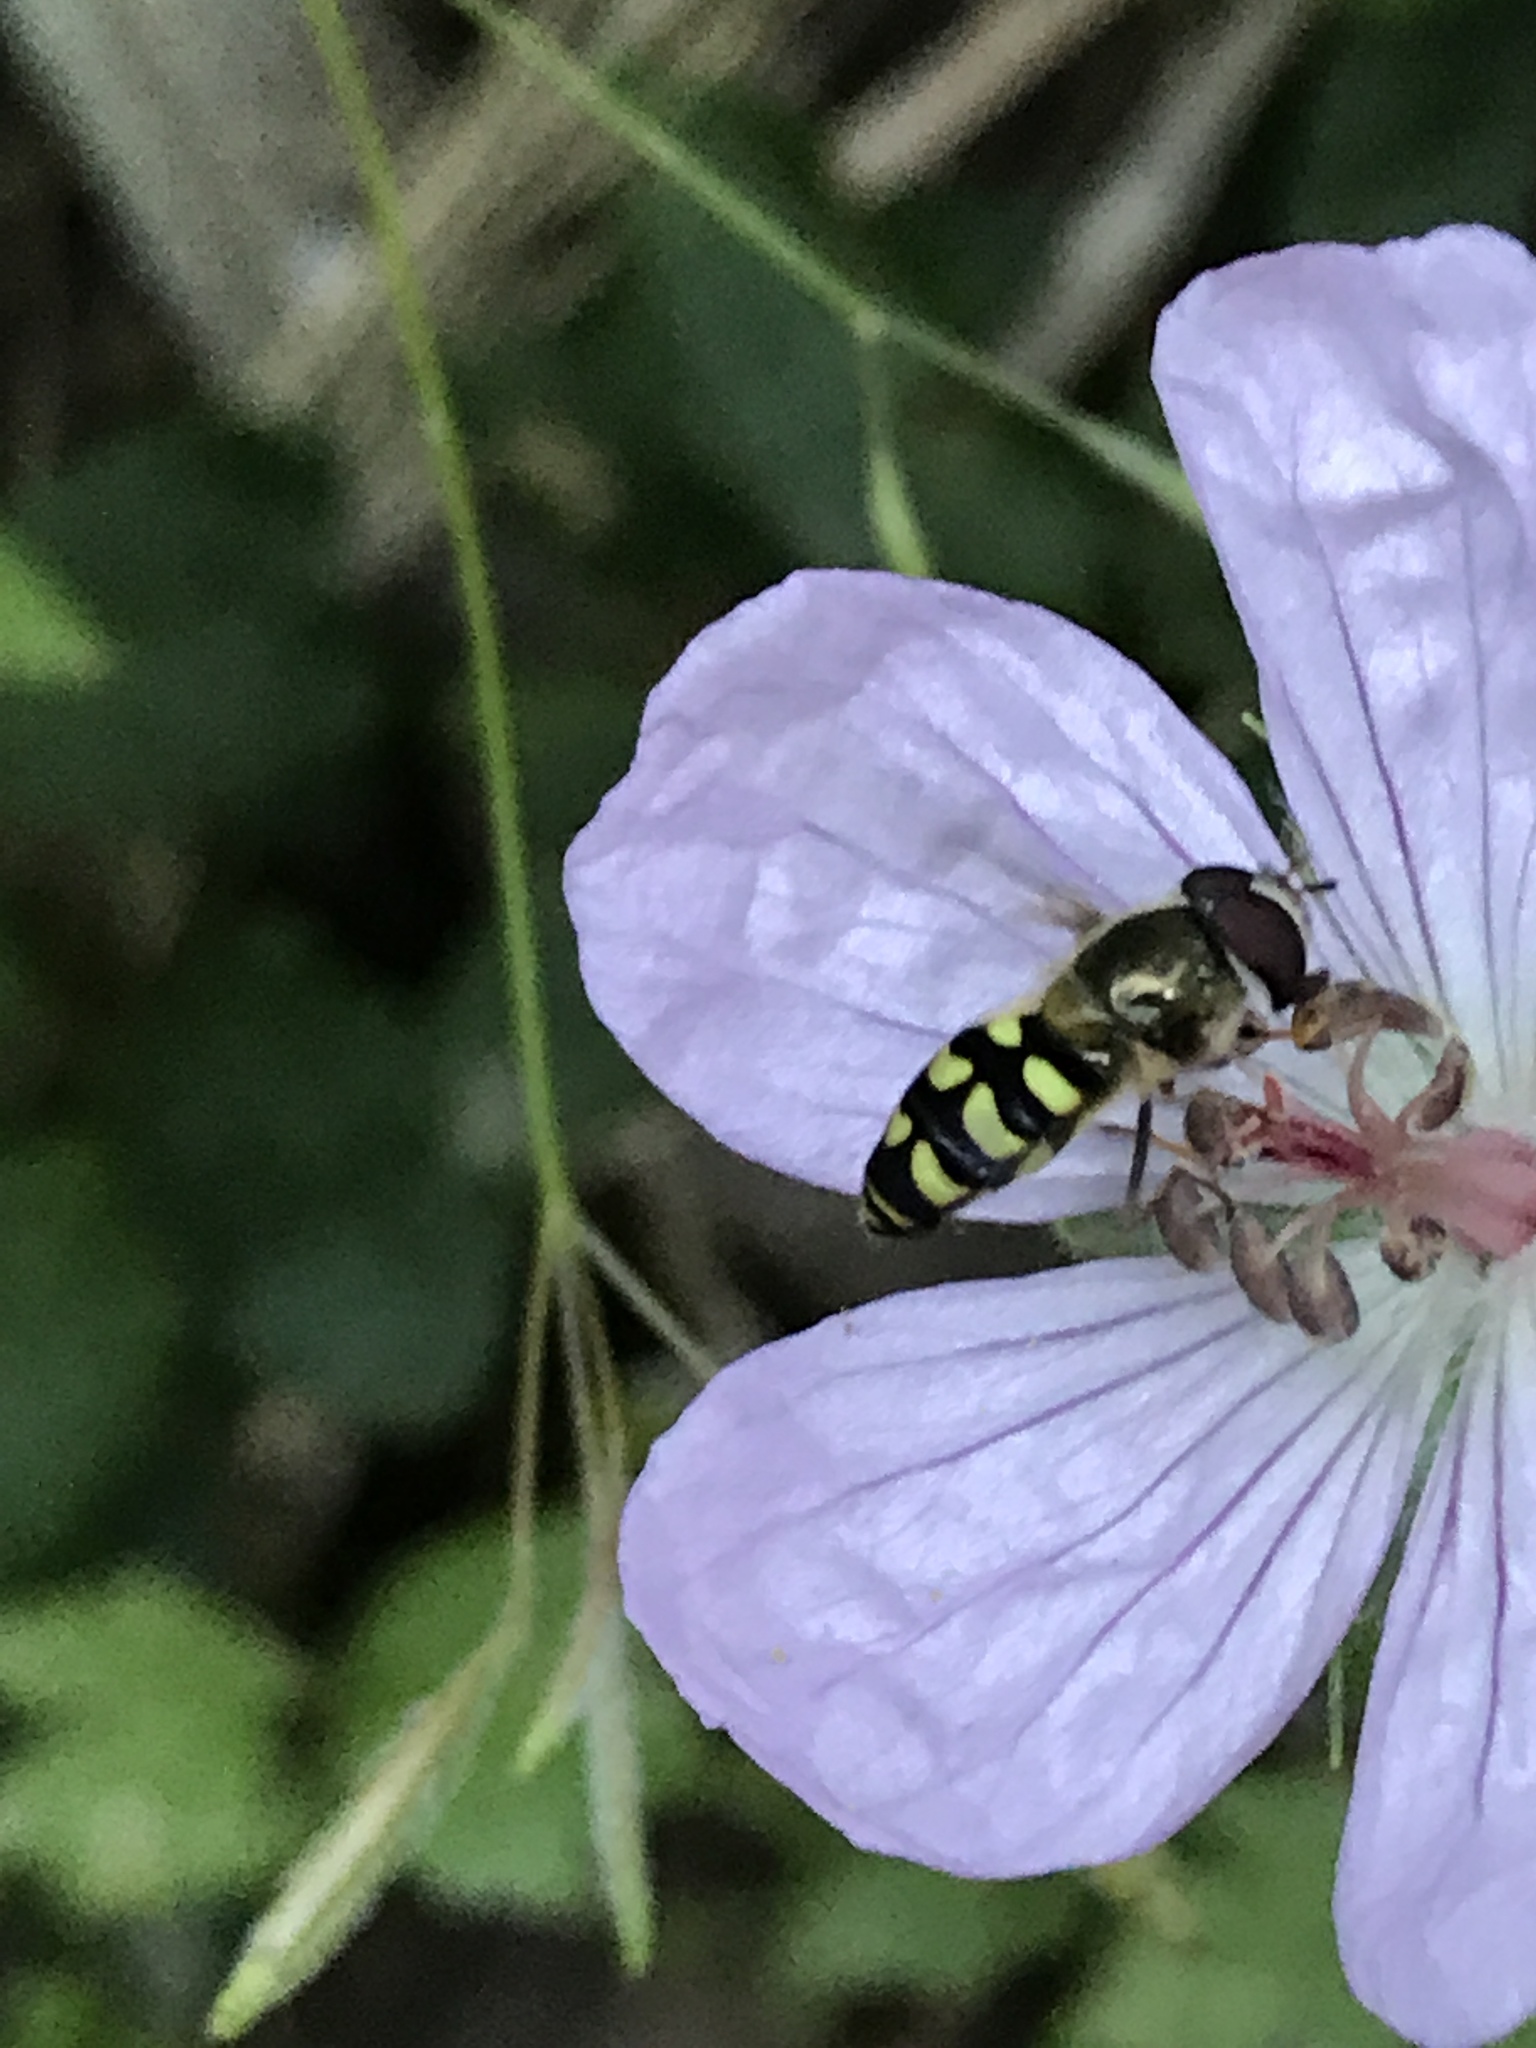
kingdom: Animalia
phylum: Arthropoda
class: Insecta
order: Diptera
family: Syrphidae
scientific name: Syrphidae
